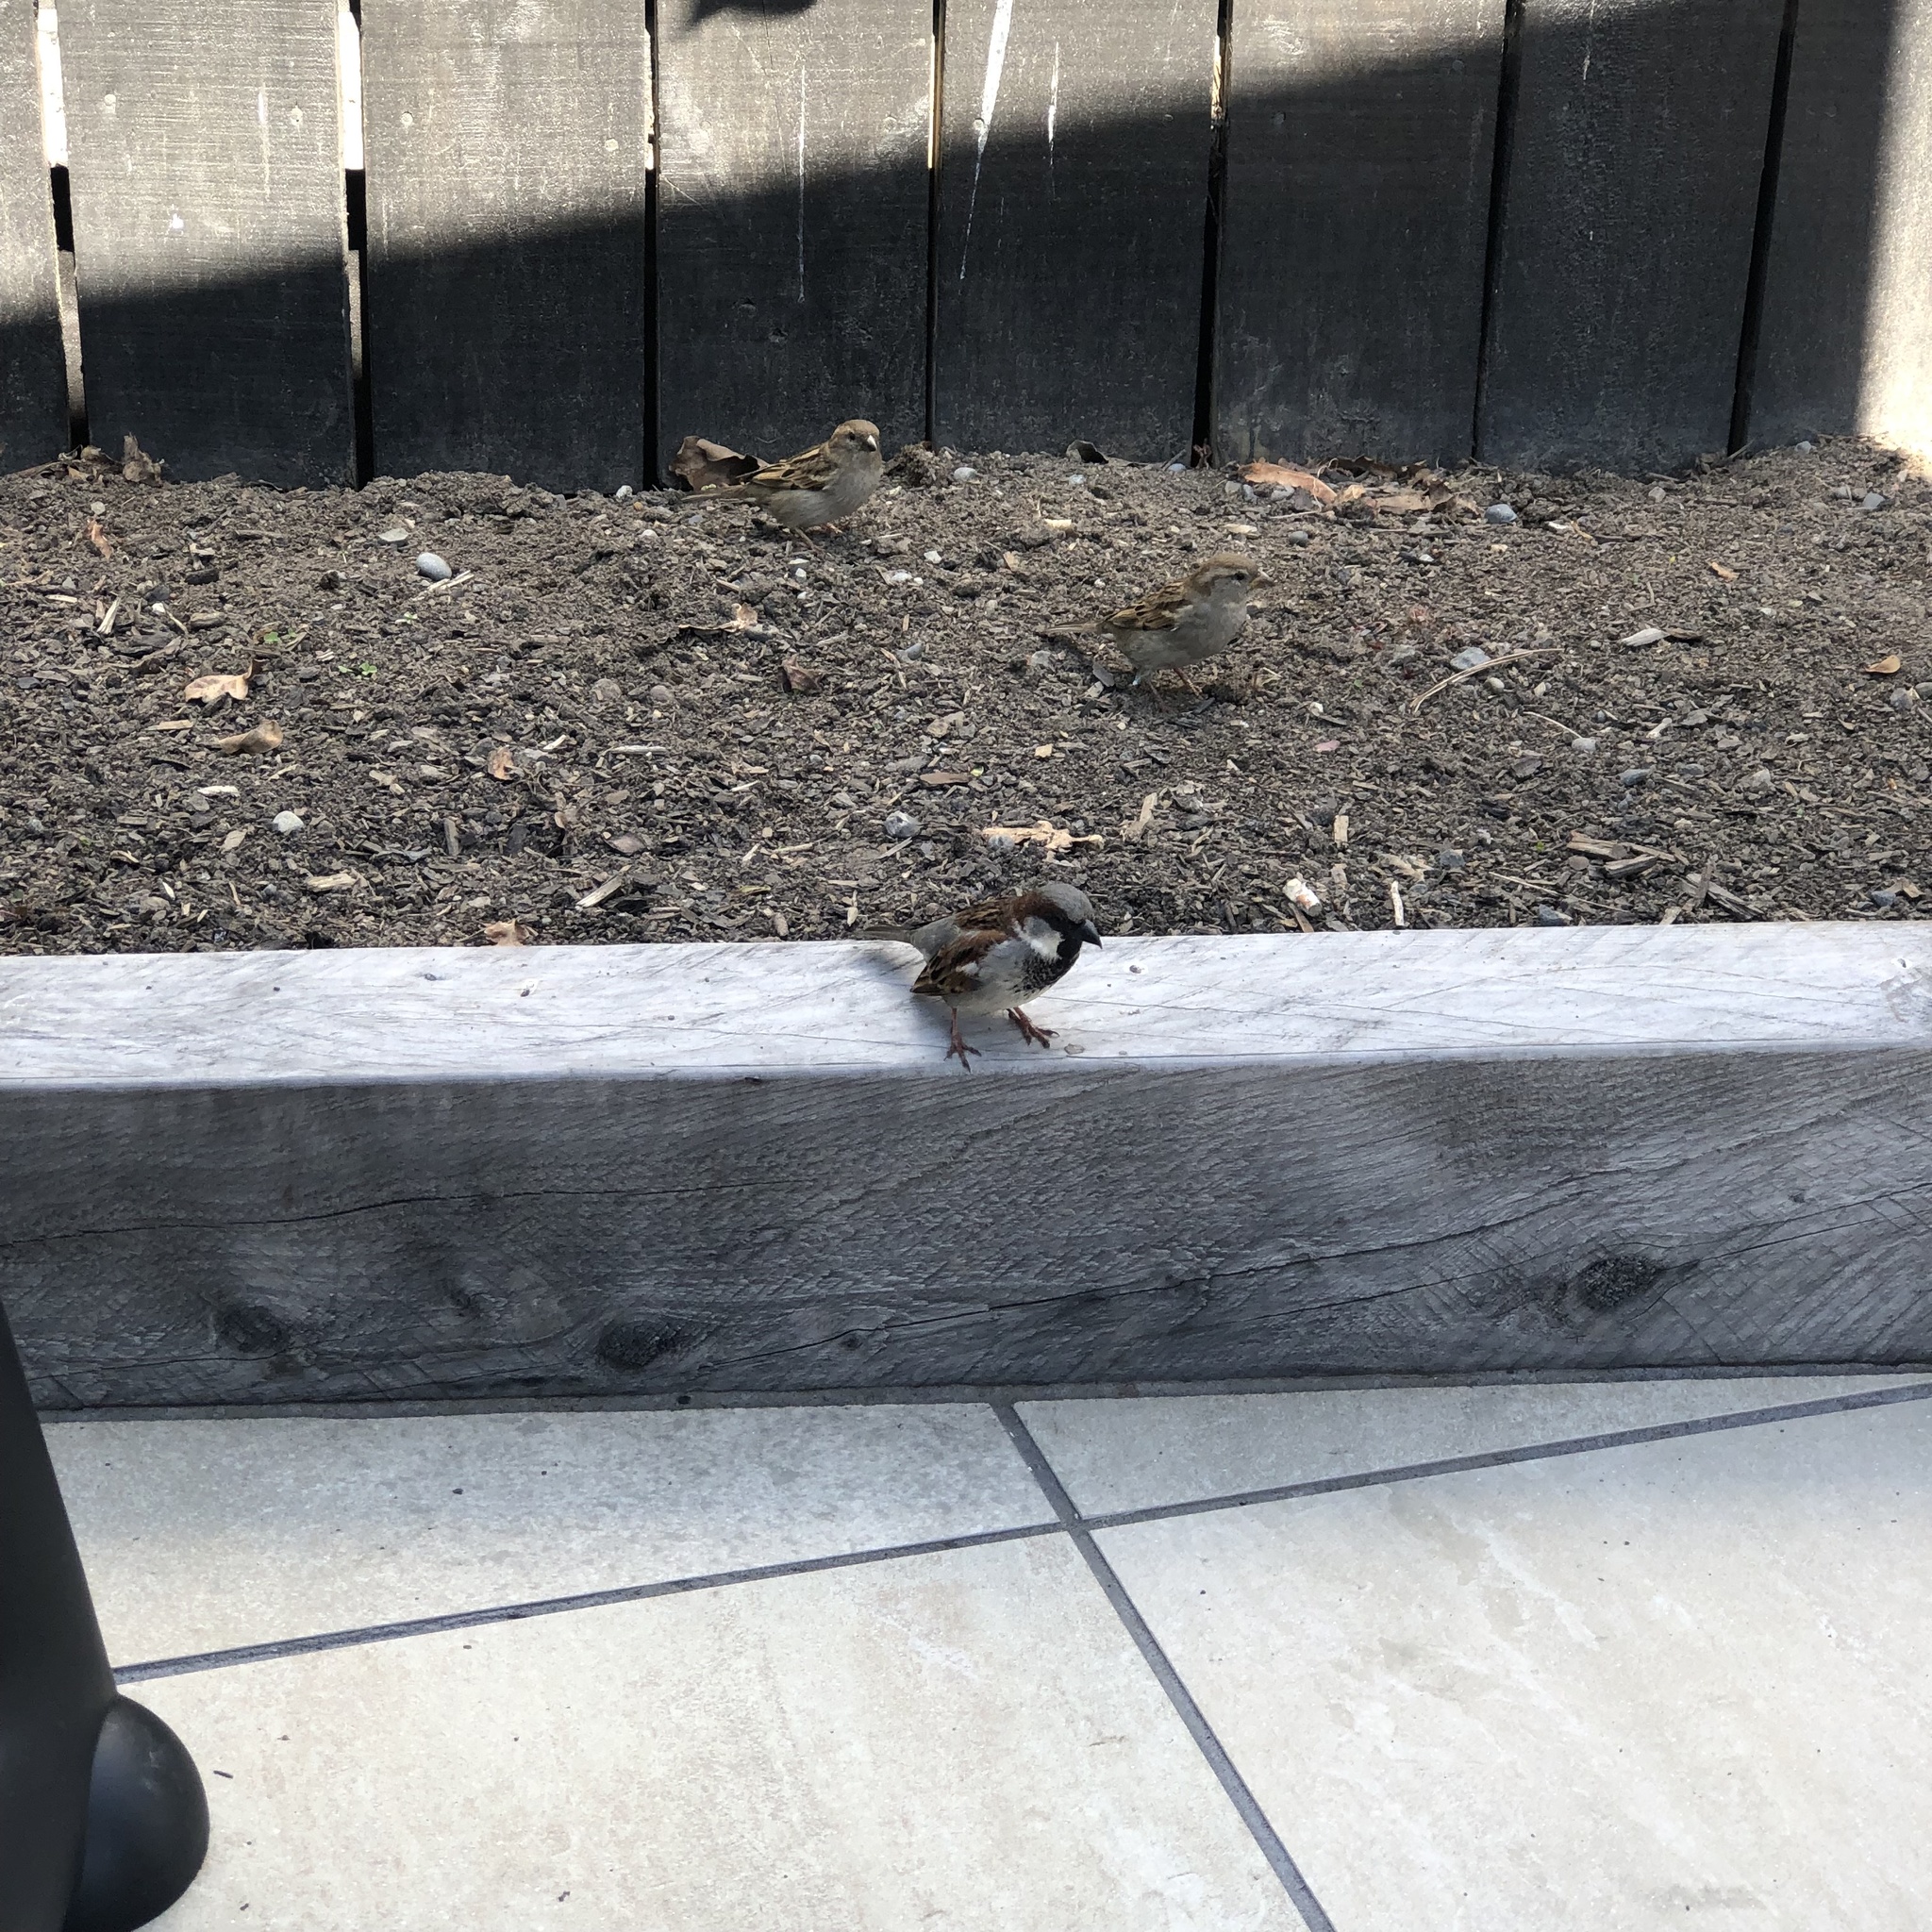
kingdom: Animalia
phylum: Chordata
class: Aves
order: Passeriformes
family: Passeridae
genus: Passer
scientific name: Passer domesticus
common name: House sparrow
